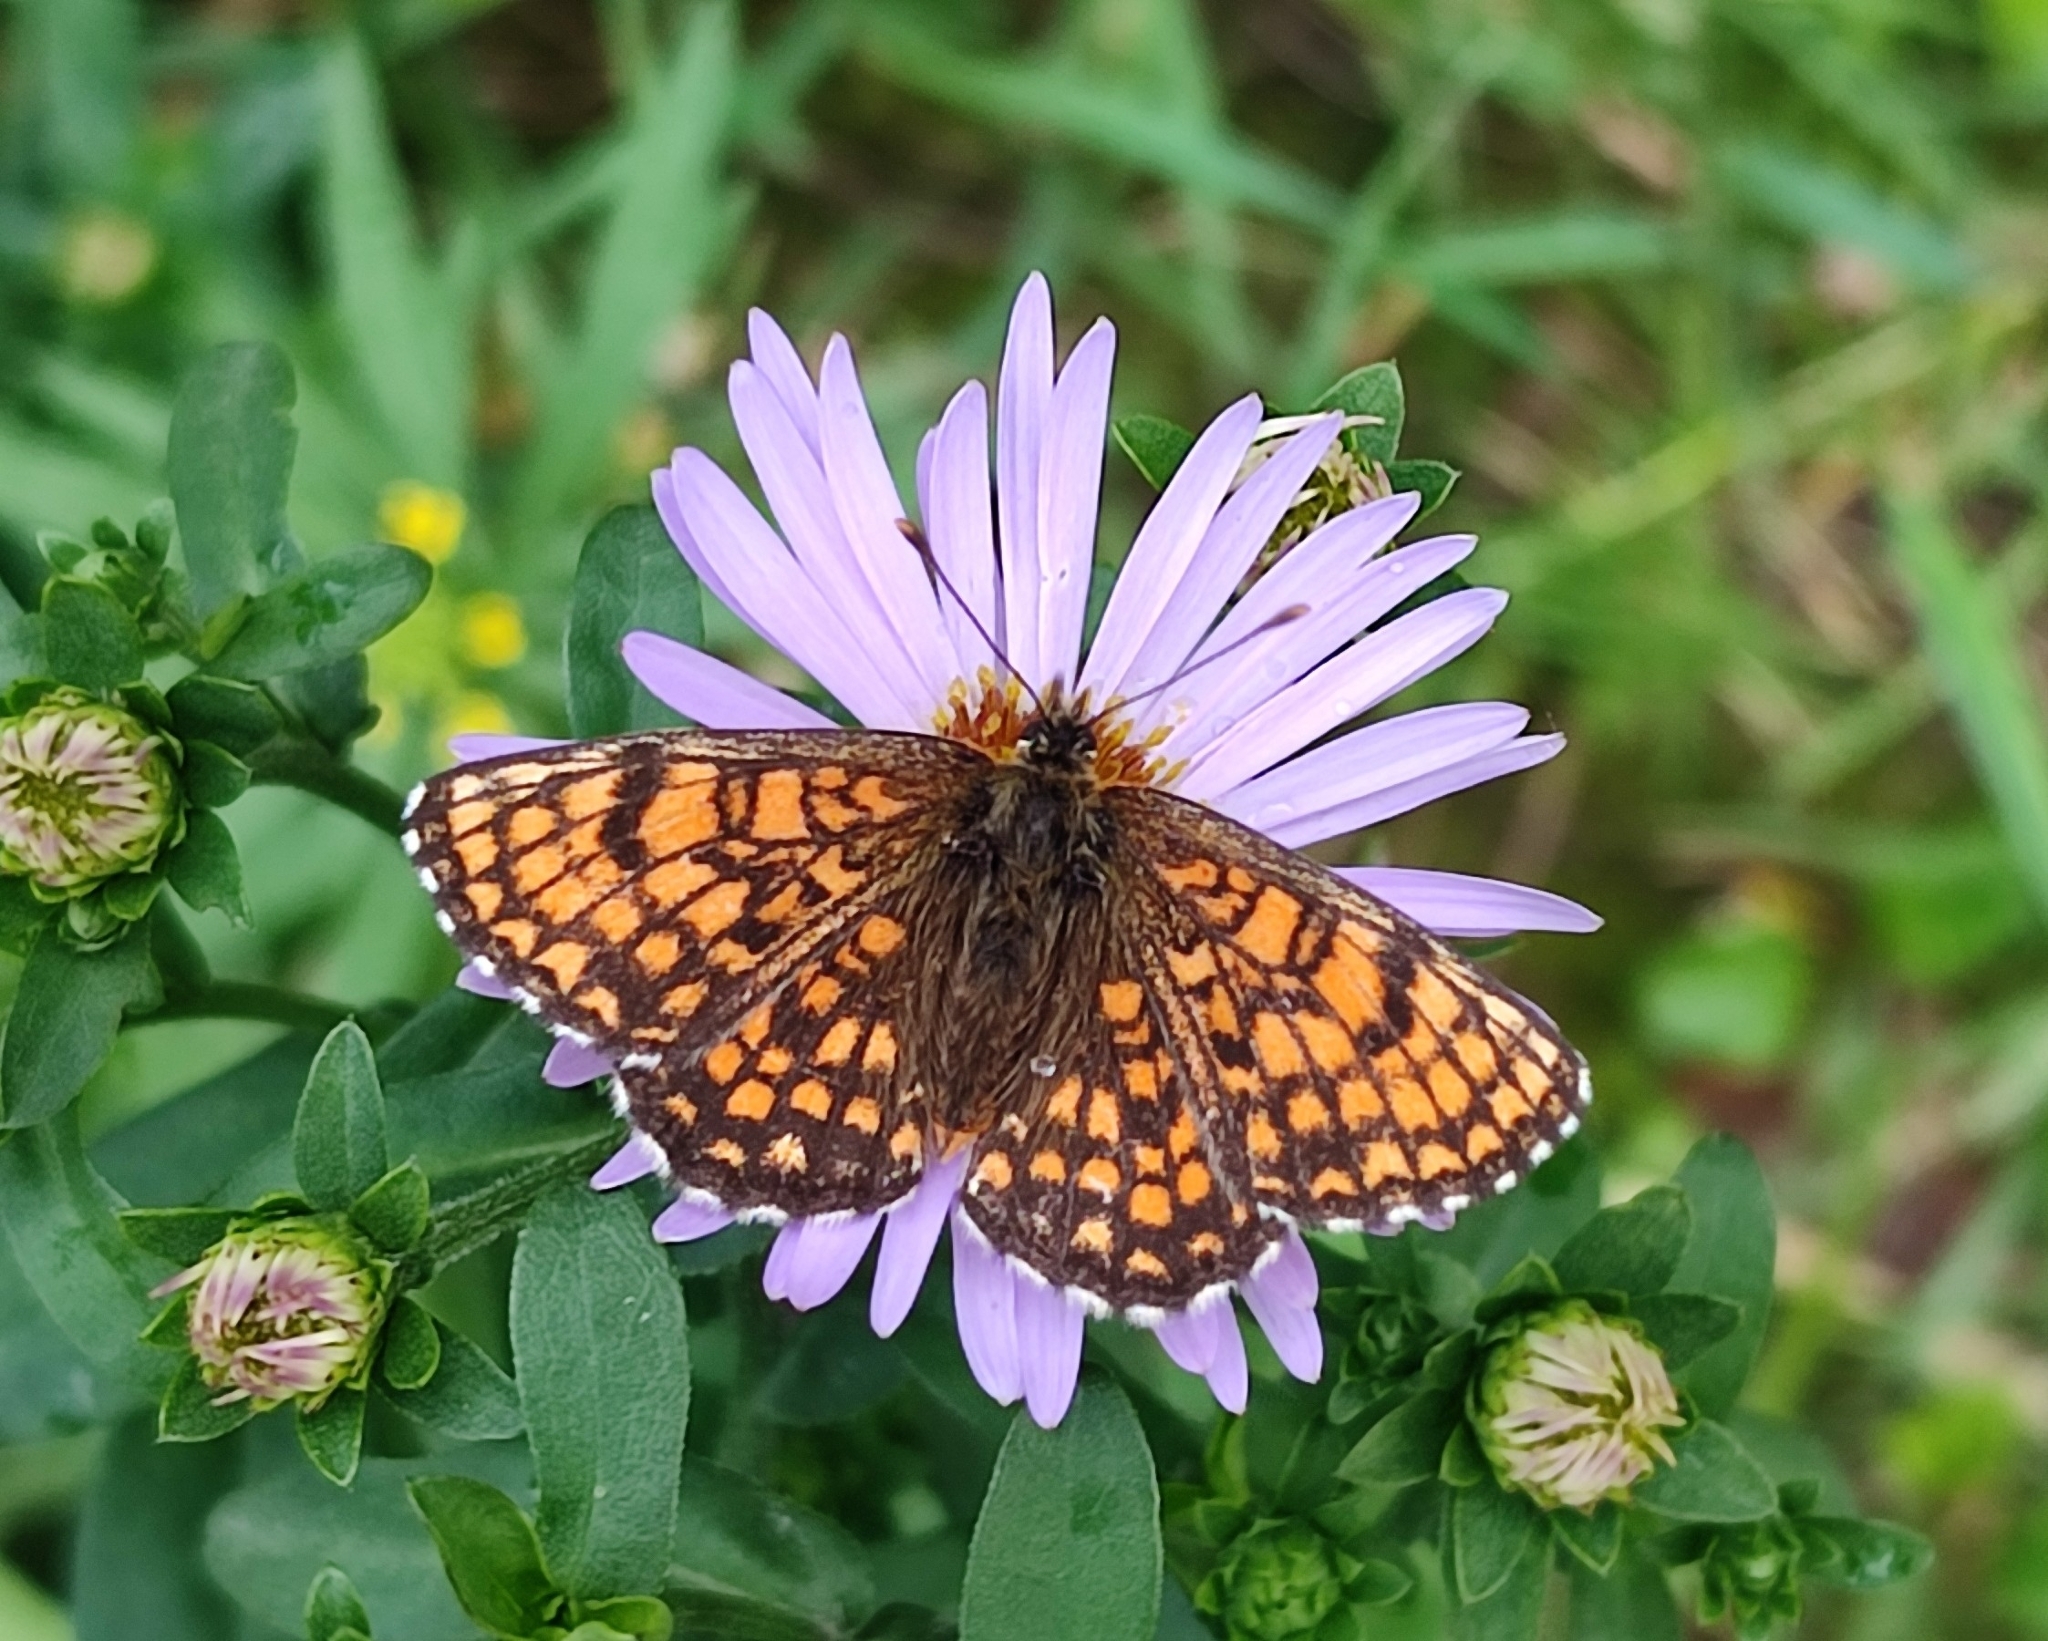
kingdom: Animalia
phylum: Arthropoda
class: Insecta
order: Lepidoptera
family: Nymphalidae
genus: Melitaea
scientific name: Melitaea athalia
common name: Heath fritillary
